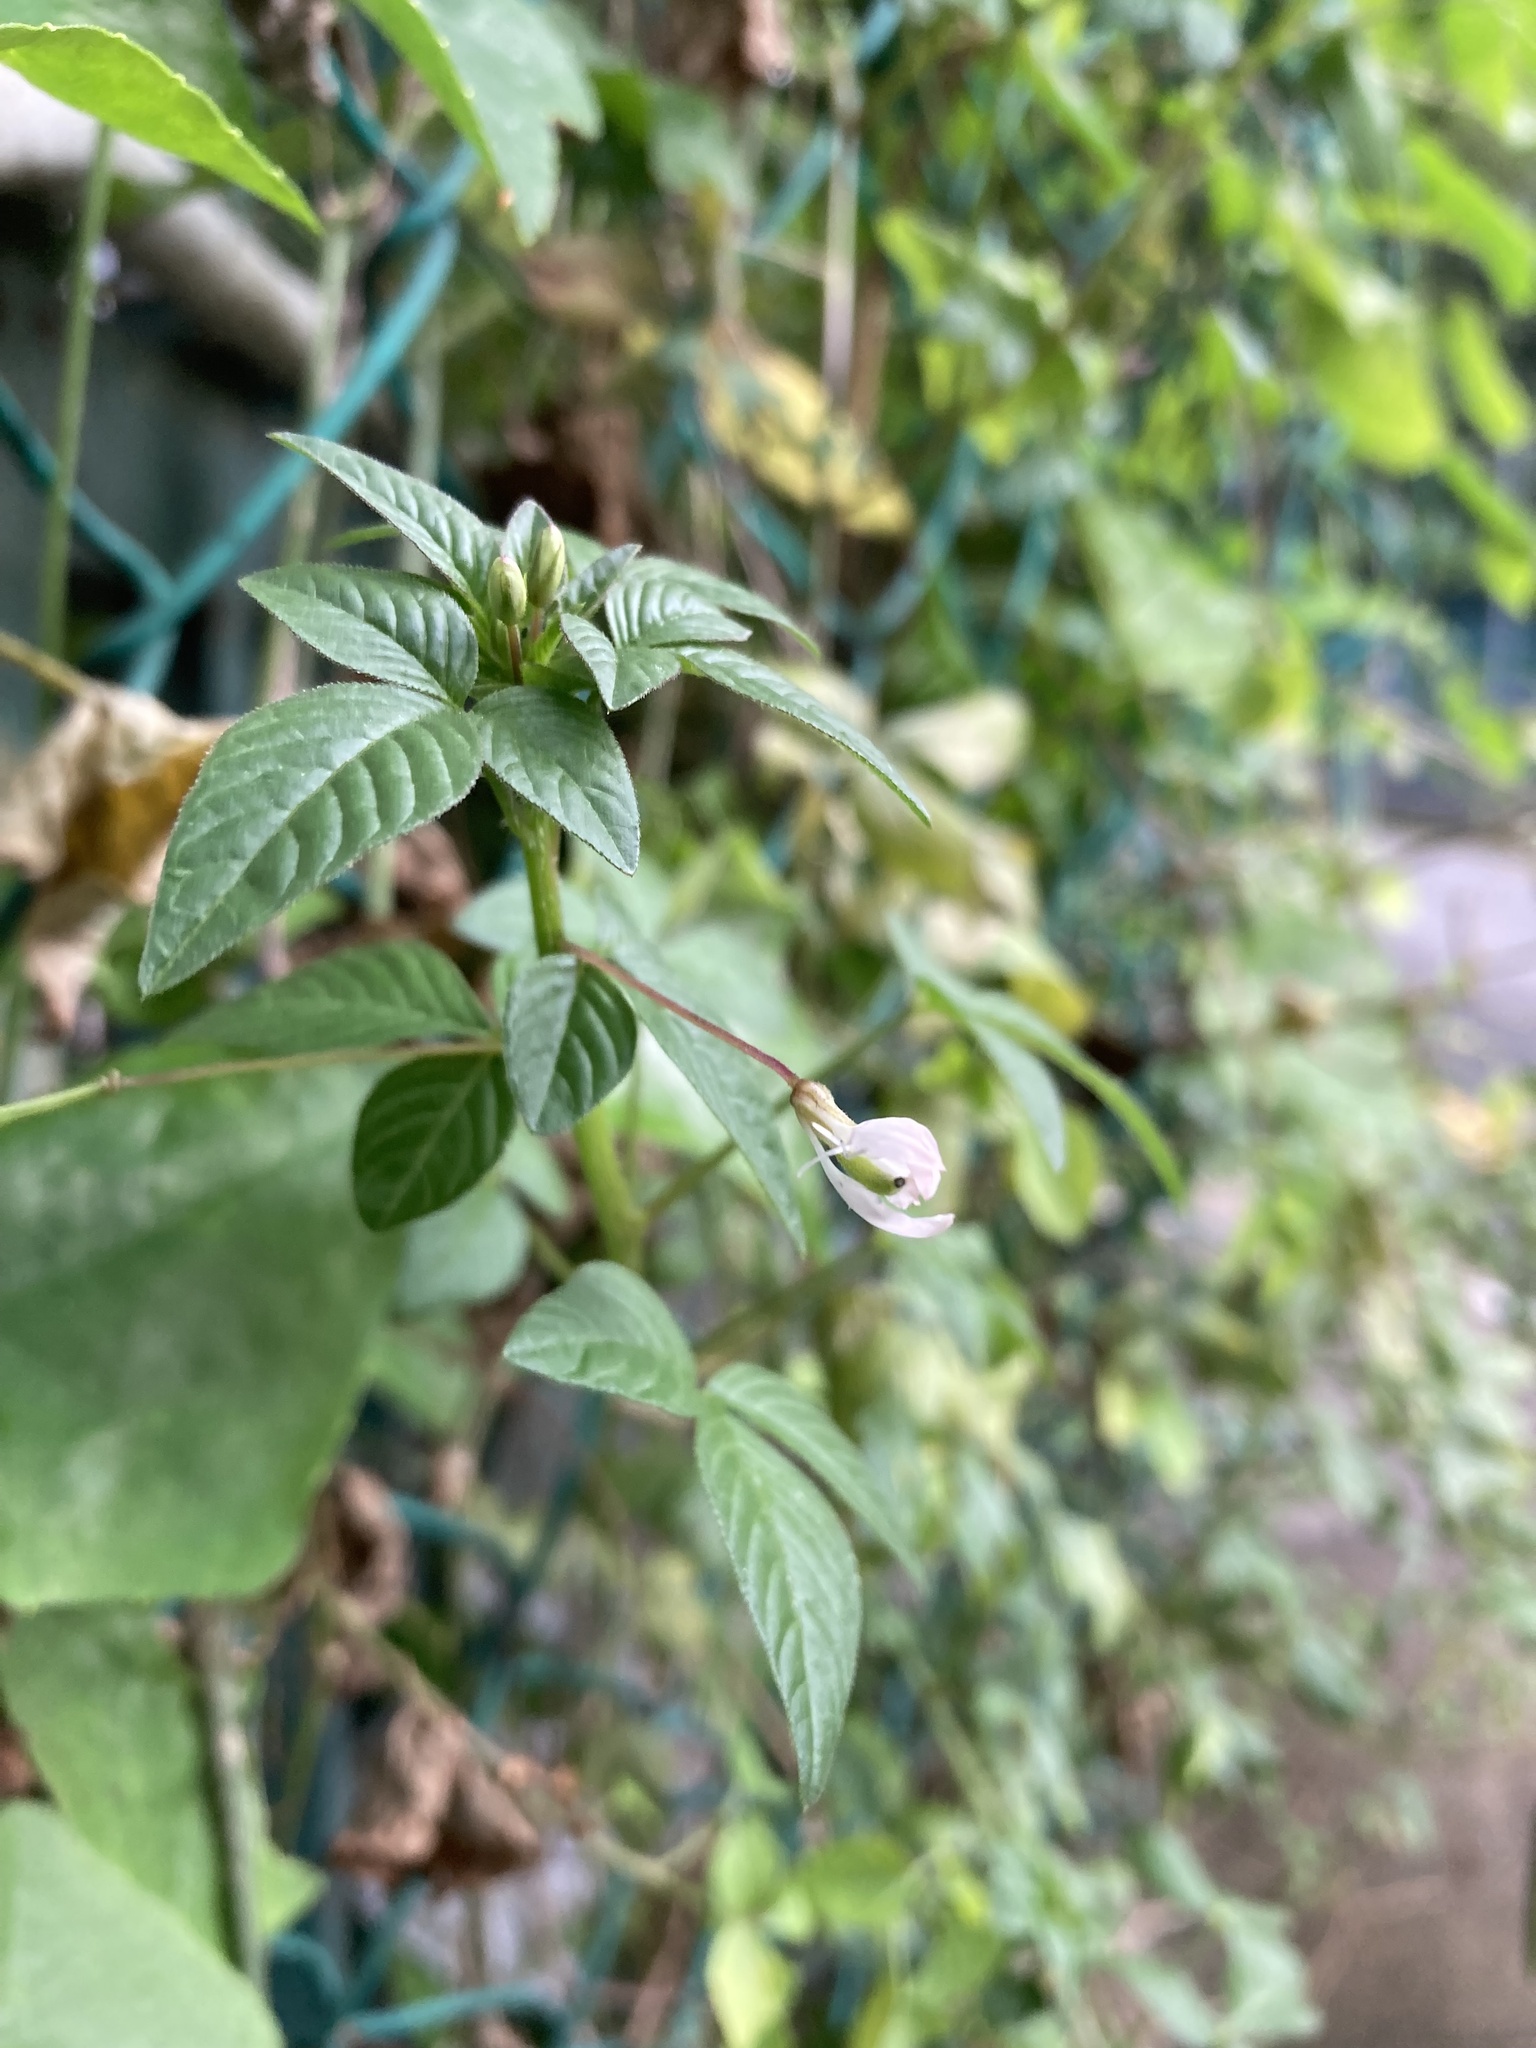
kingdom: Plantae
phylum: Tracheophyta
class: Magnoliopsida
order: Brassicales
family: Cleomaceae
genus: Sieruela
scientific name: Sieruela rutidosperma
